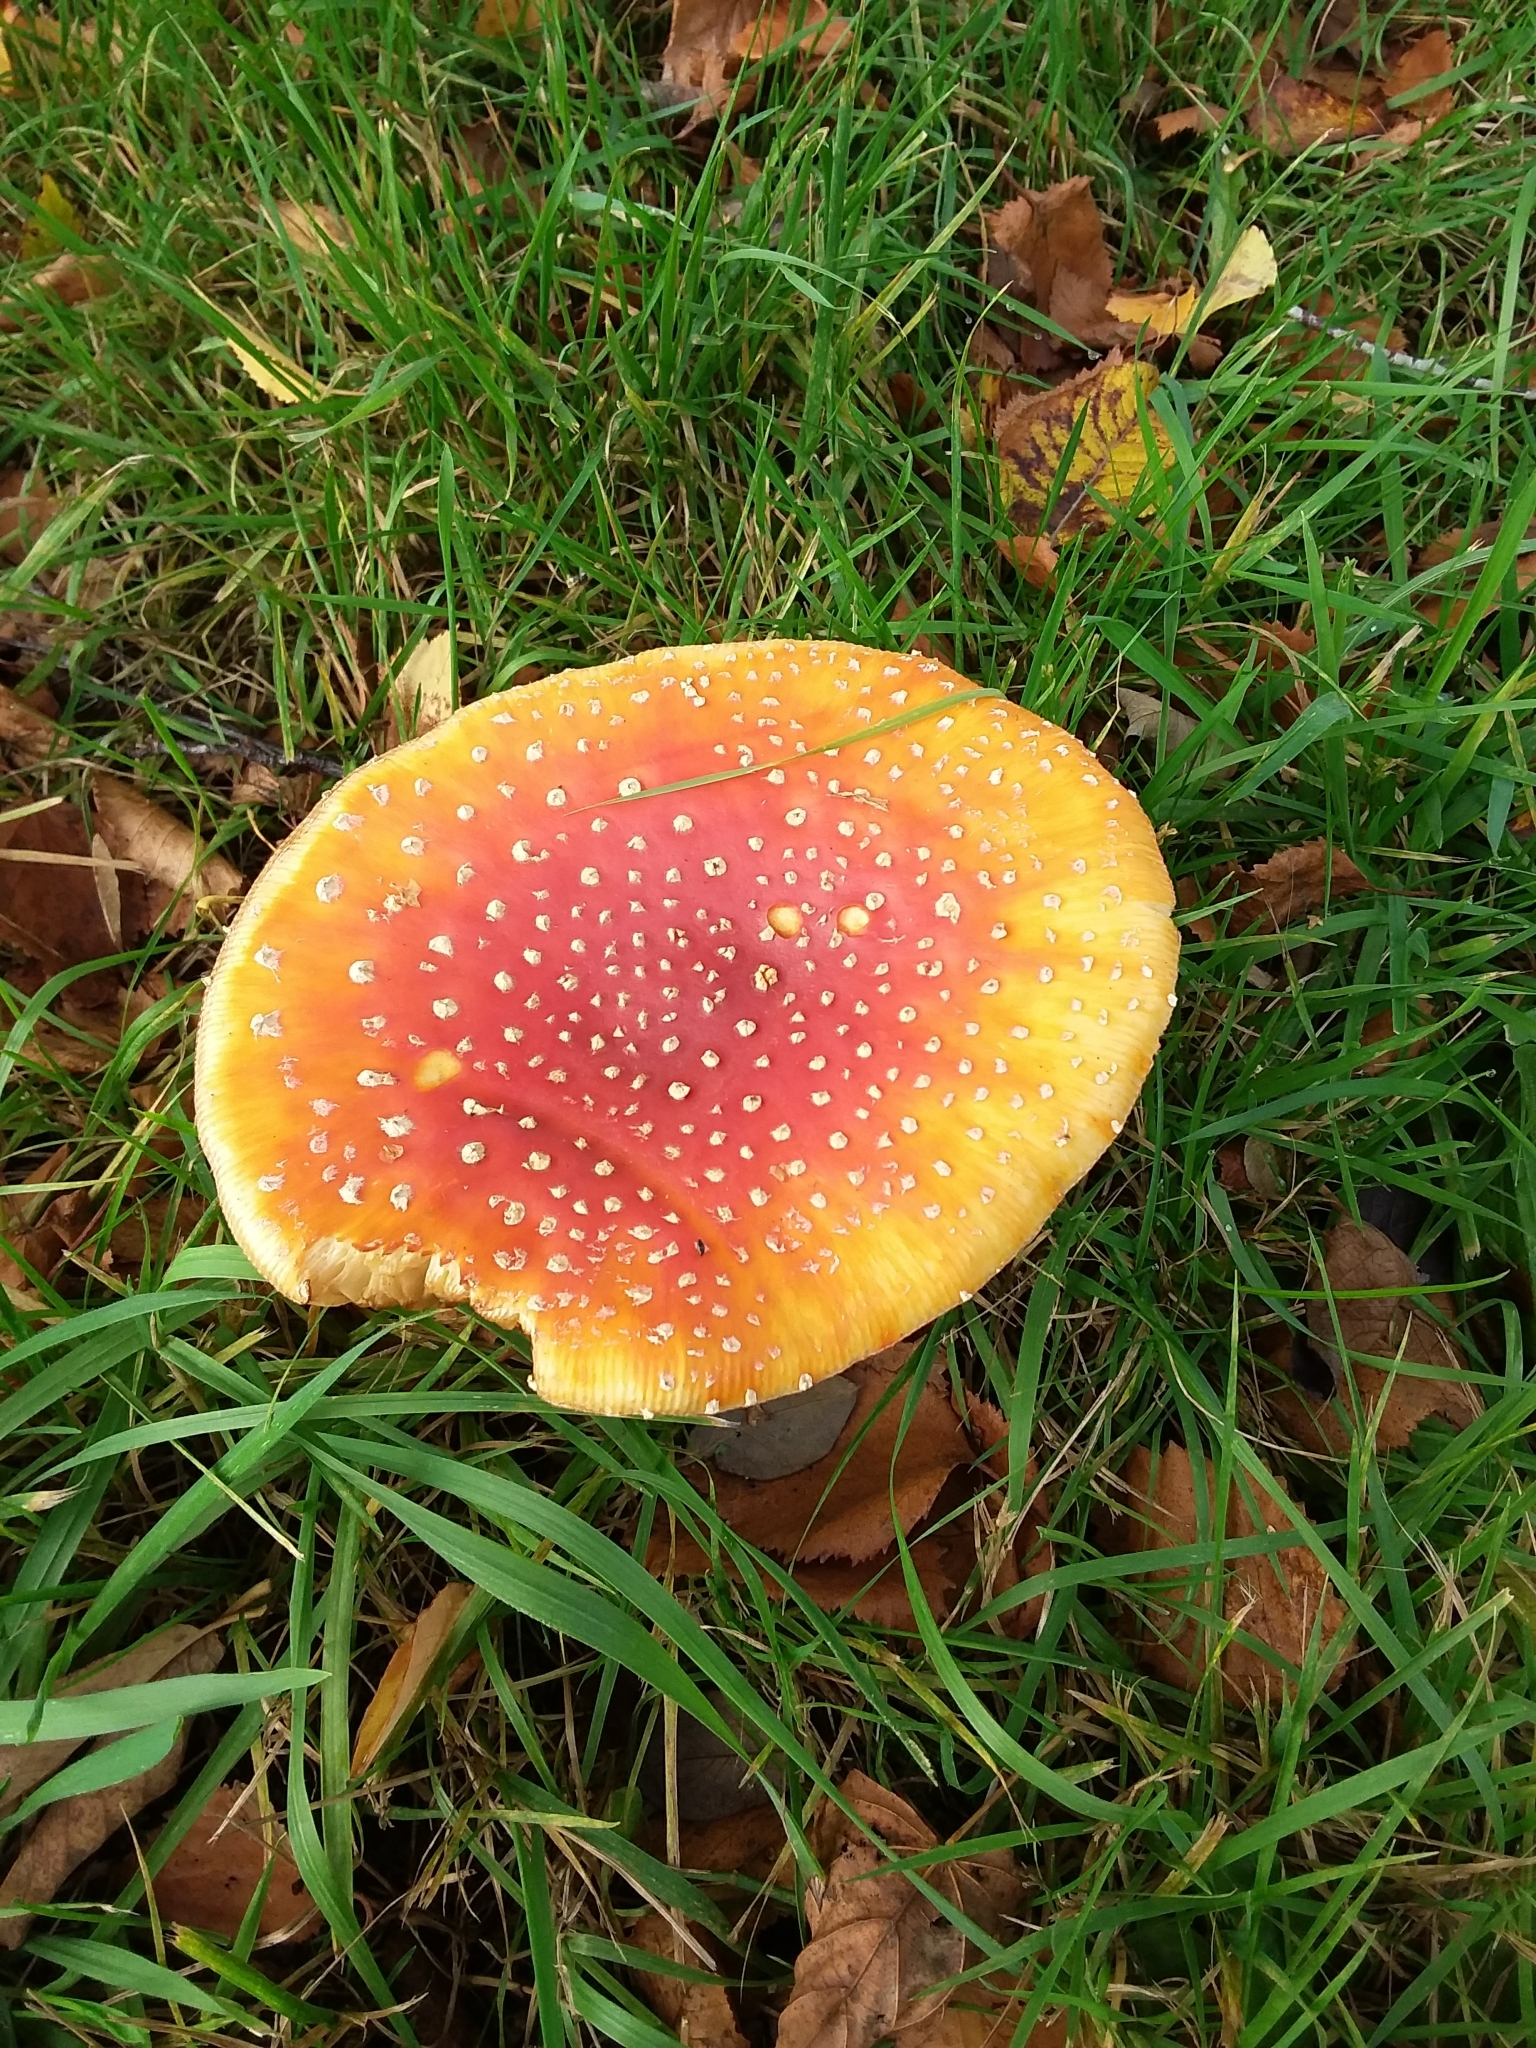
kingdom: Fungi
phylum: Basidiomycota
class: Agaricomycetes
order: Agaricales
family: Amanitaceae
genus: Amanita
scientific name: Amanita muscaria
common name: Fly agaric
